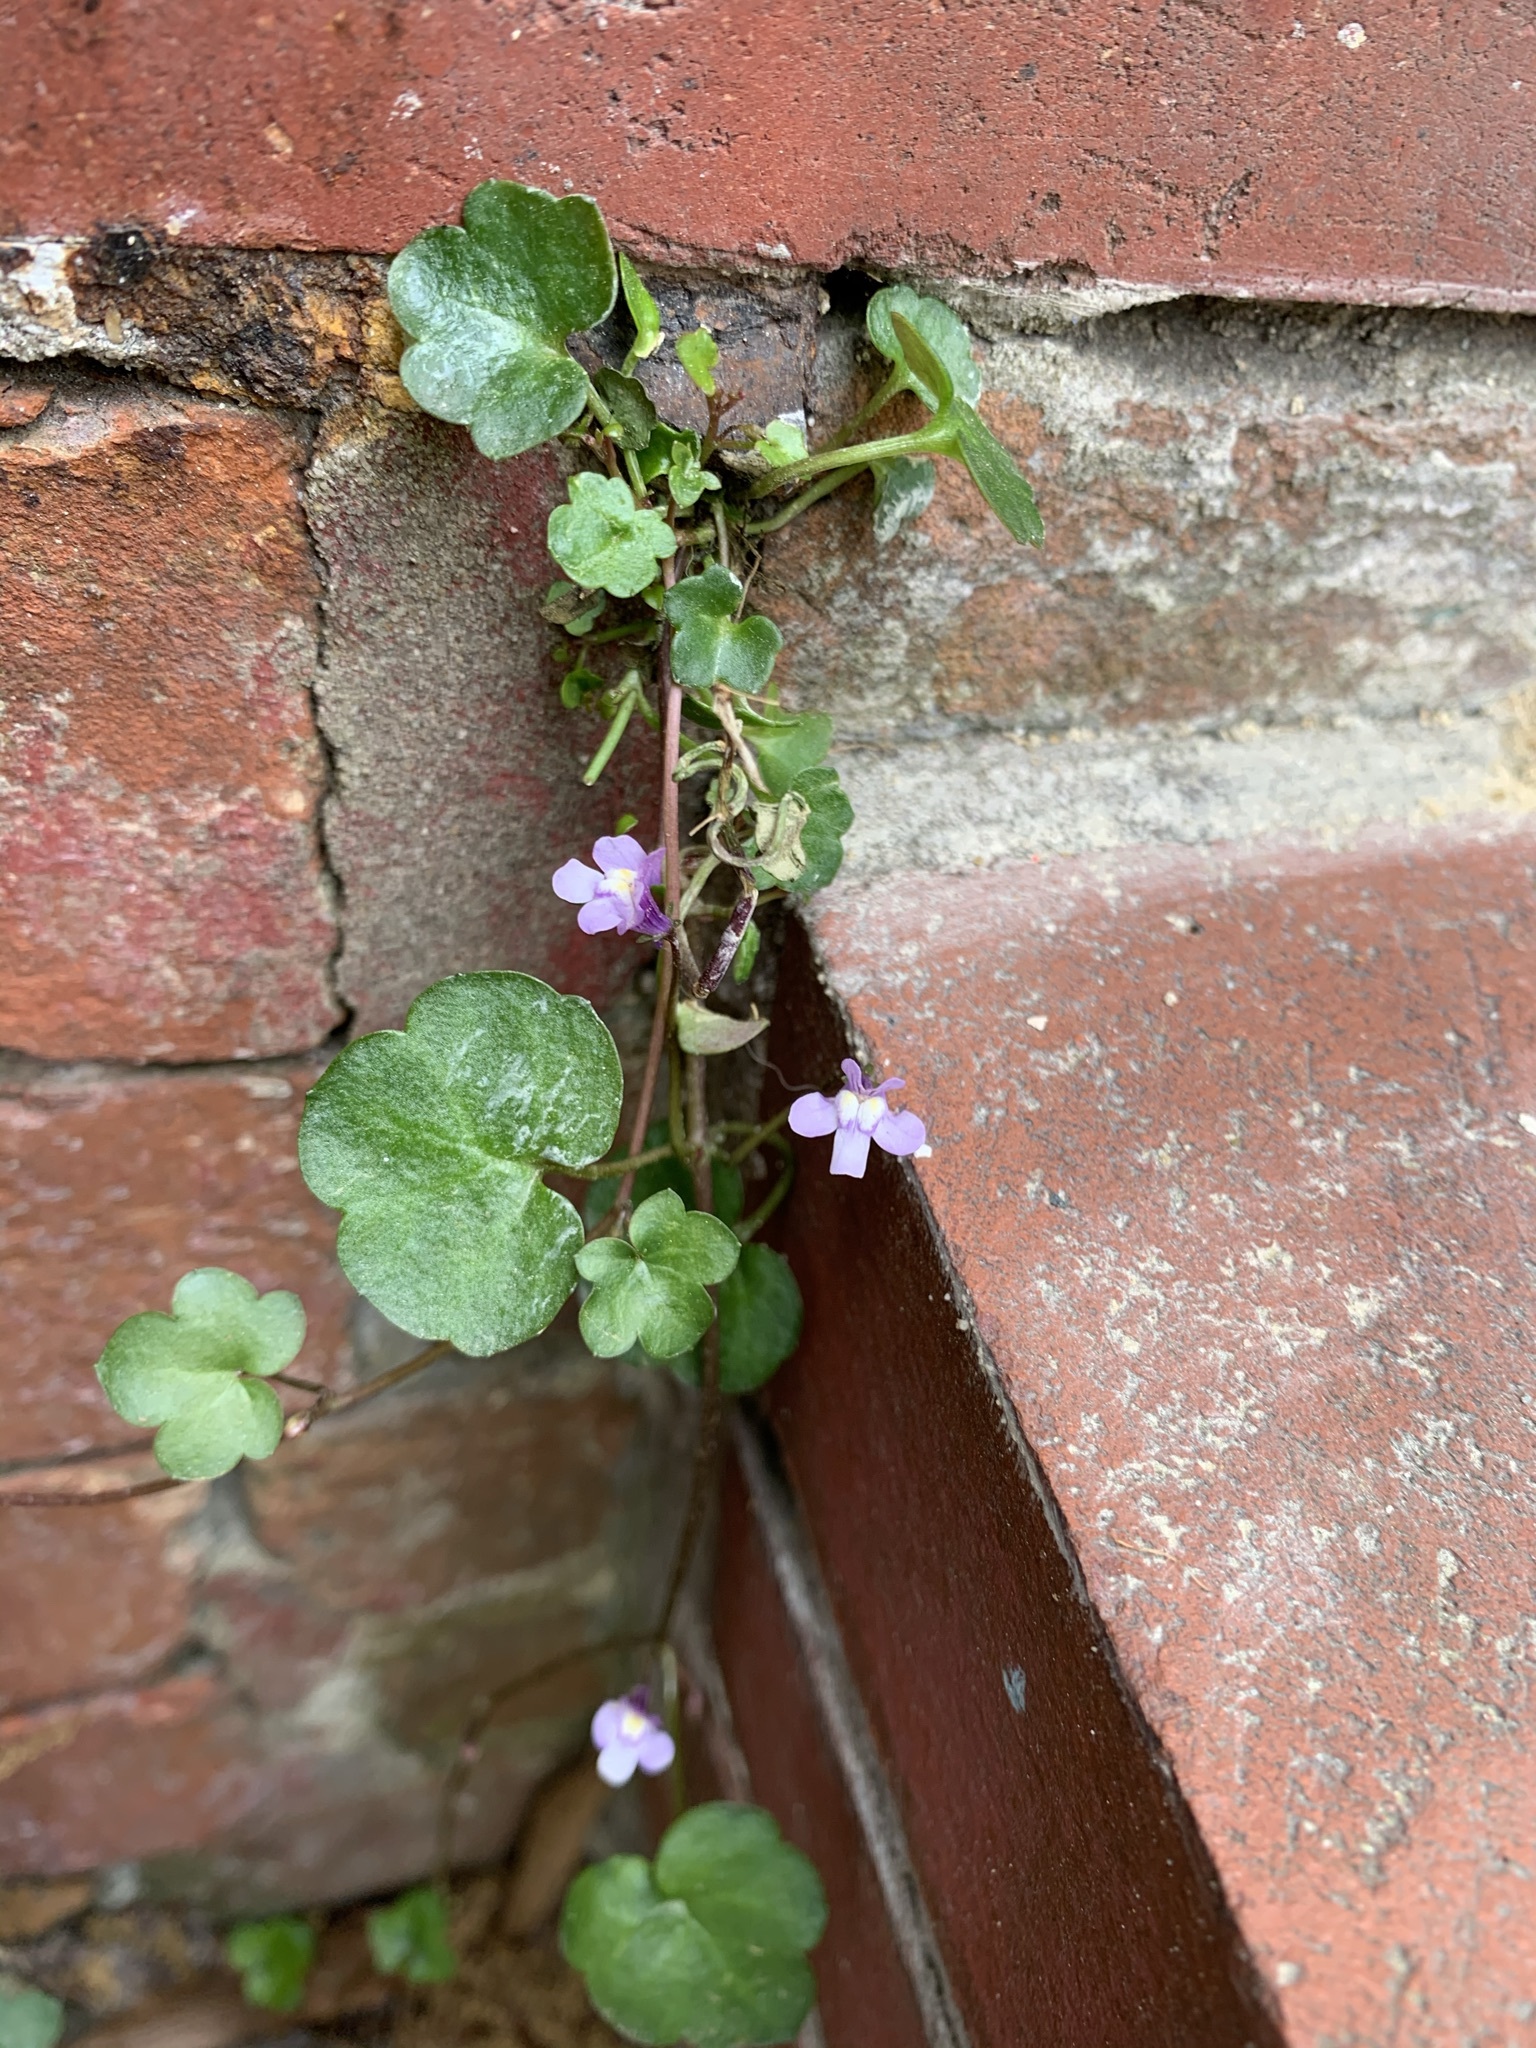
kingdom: Plantae
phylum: Tracheophyta
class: Magnoliopsida
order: Lamiales
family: Plantaginaceae
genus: Cymbalaria
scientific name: Cymbalaria muralis
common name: Ivy-leaved toadflax
